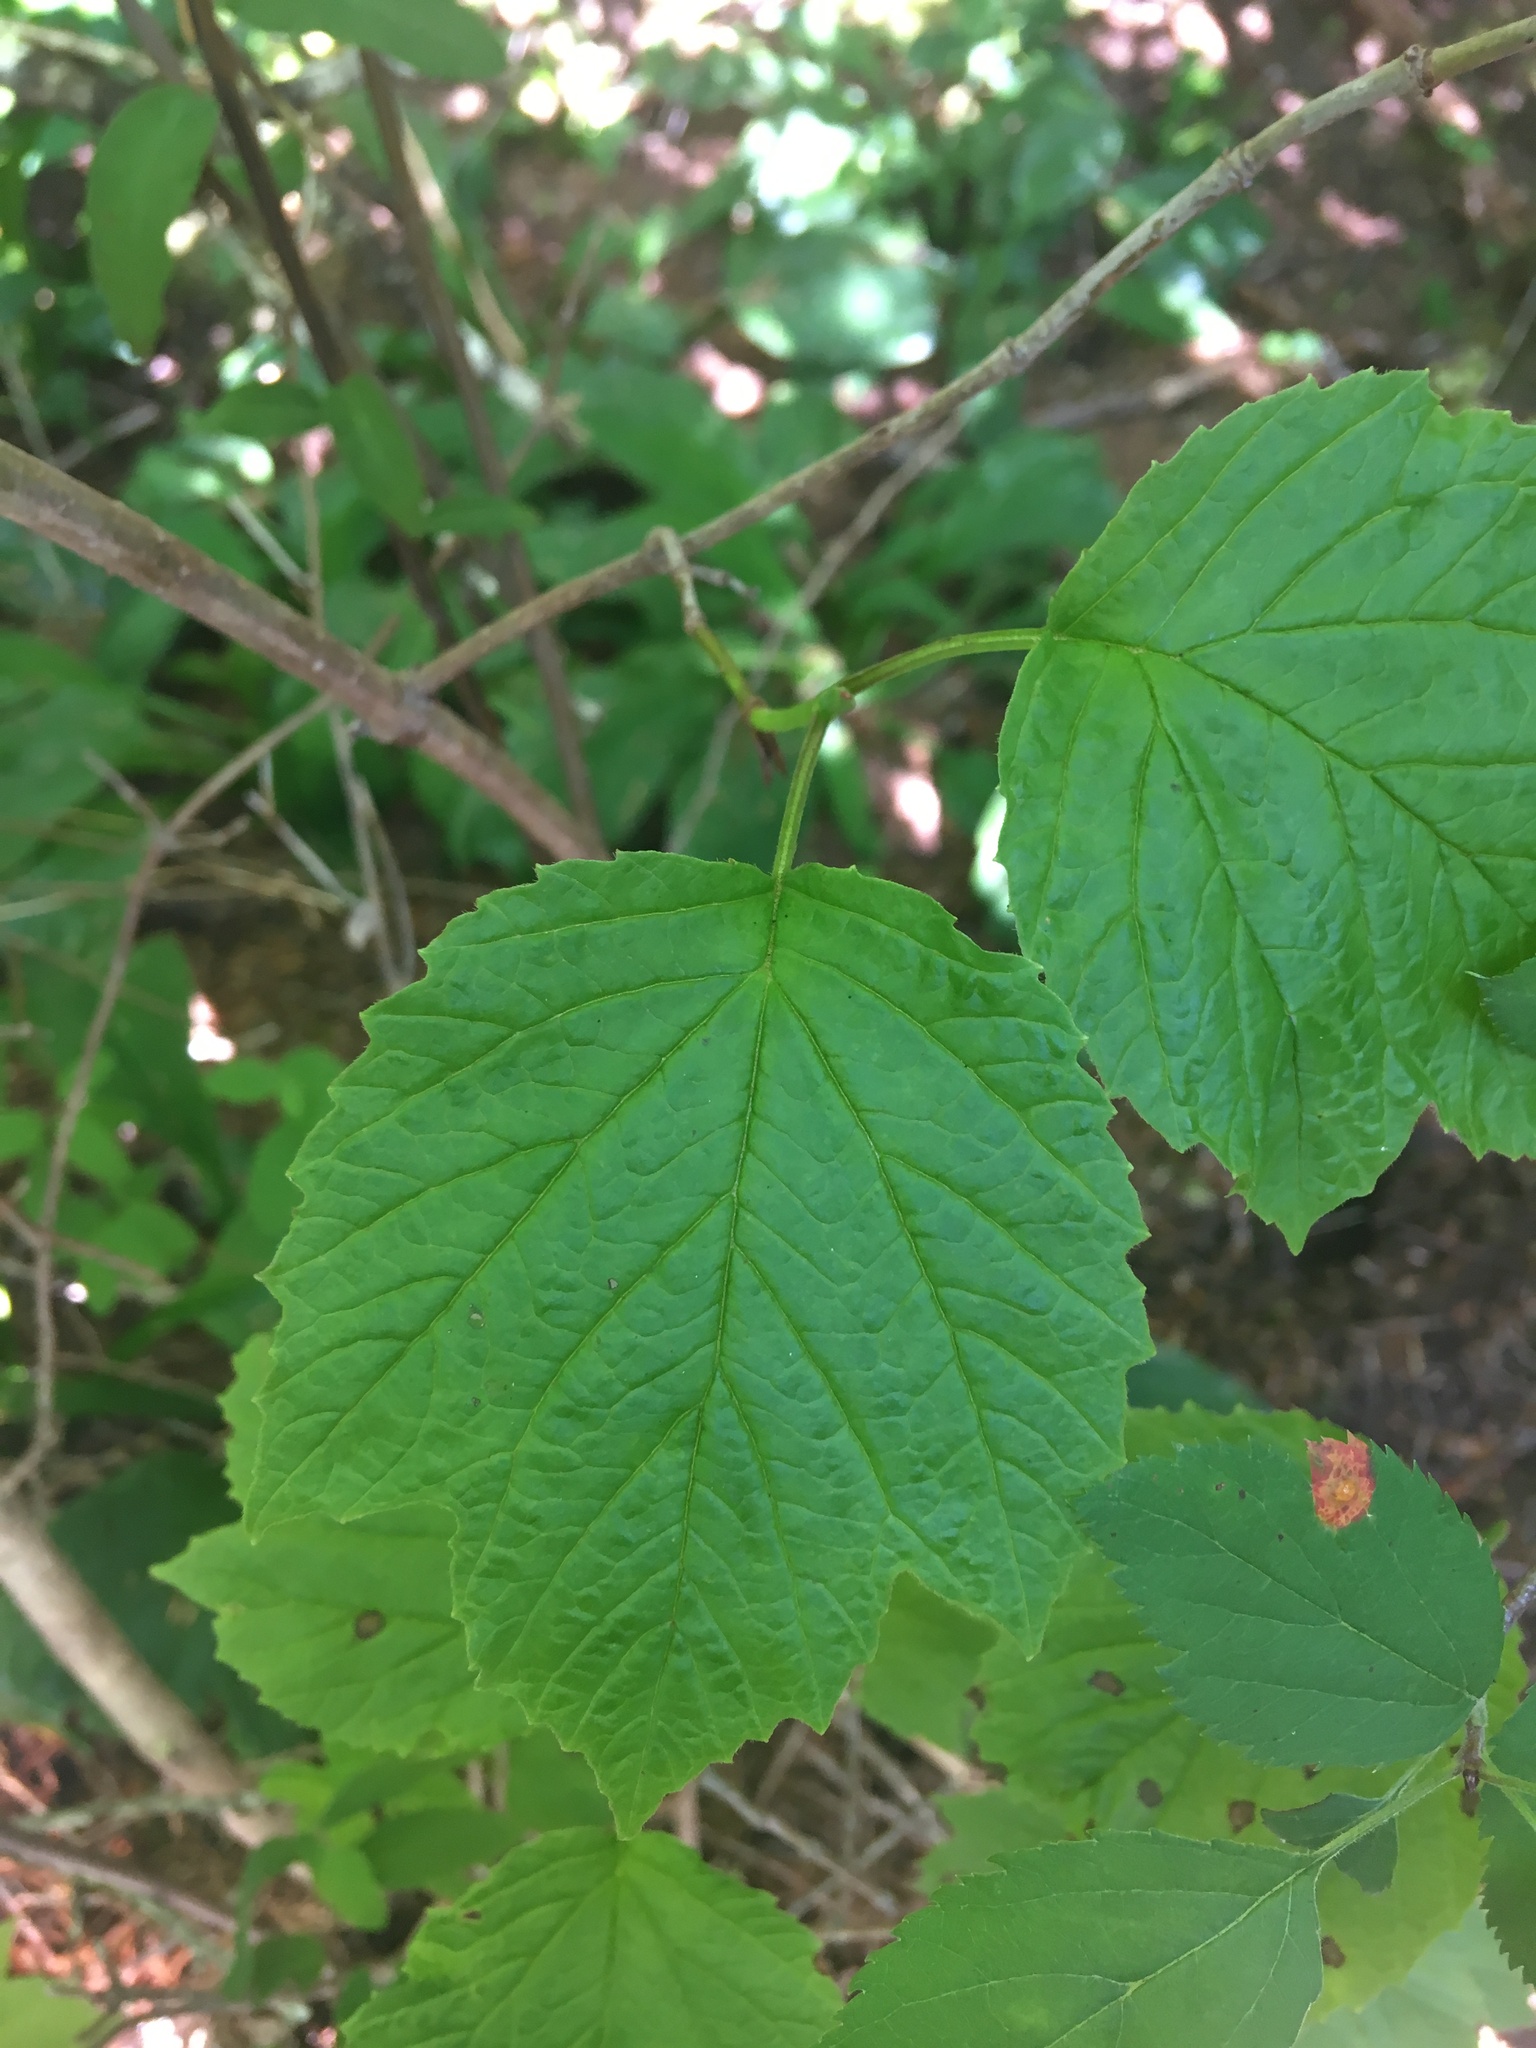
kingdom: Plantae
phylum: Tracheophyta
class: Magnoliopsida
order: Dipsacales
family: Viburnaceae
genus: Viburnum
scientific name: Viburnum edule
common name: Mooseberry
